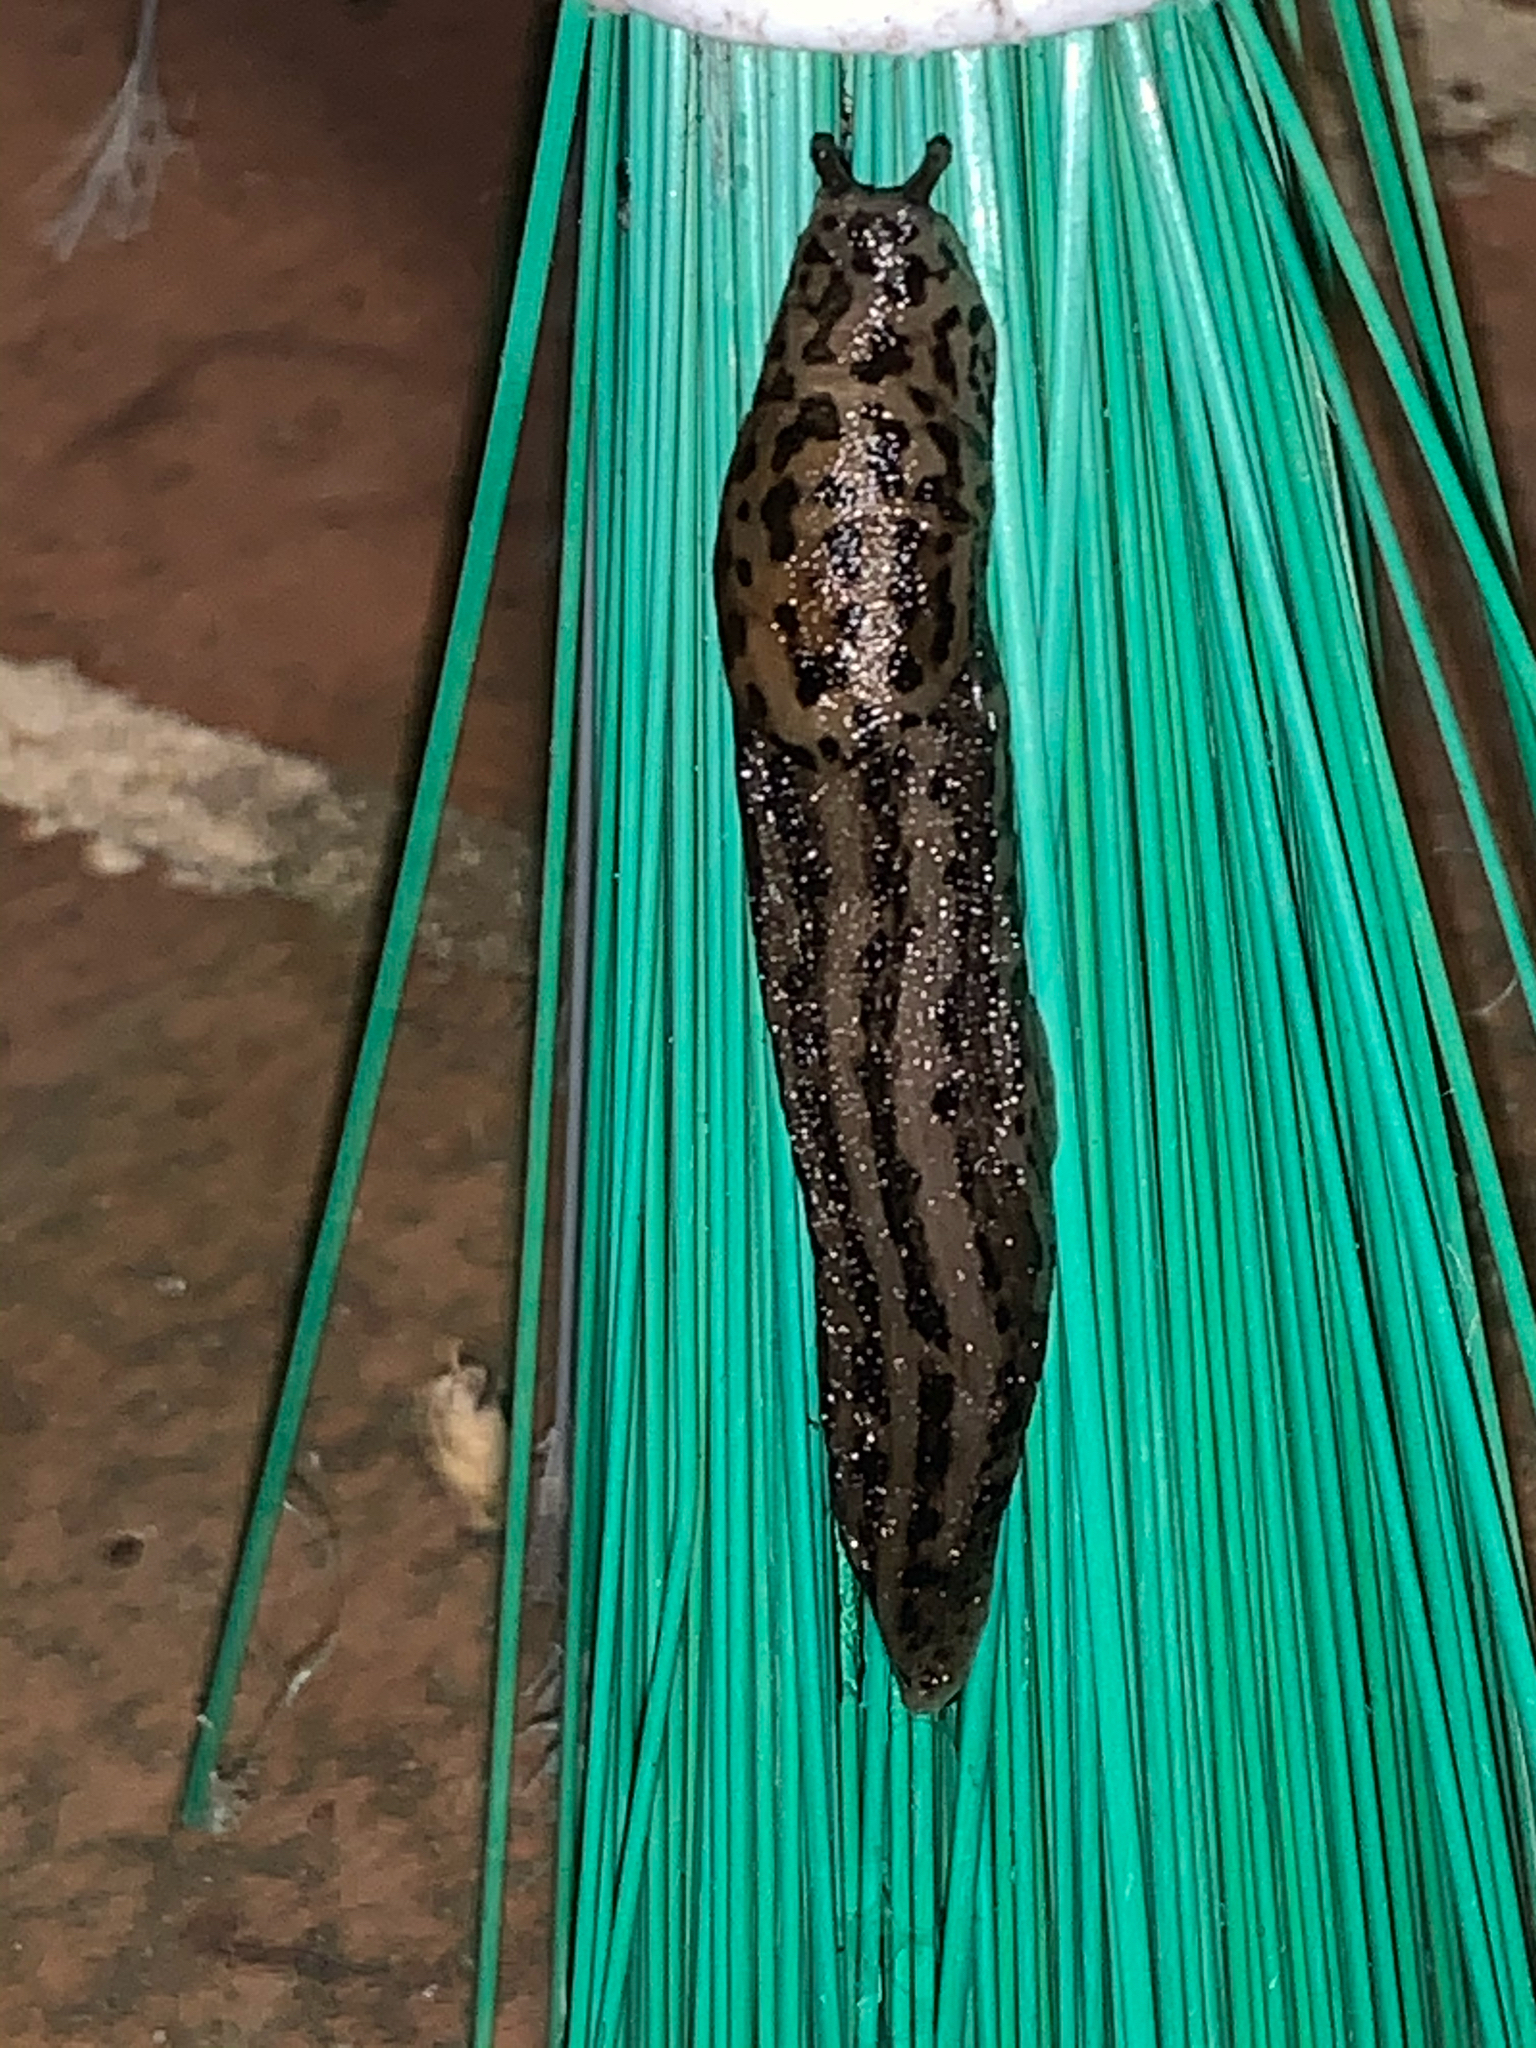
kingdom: Animalia
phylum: Mollusca
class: Gastropoda
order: Stylommatophora
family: Limacidae
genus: Limax
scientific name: Limax maximus
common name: Great grey slug
